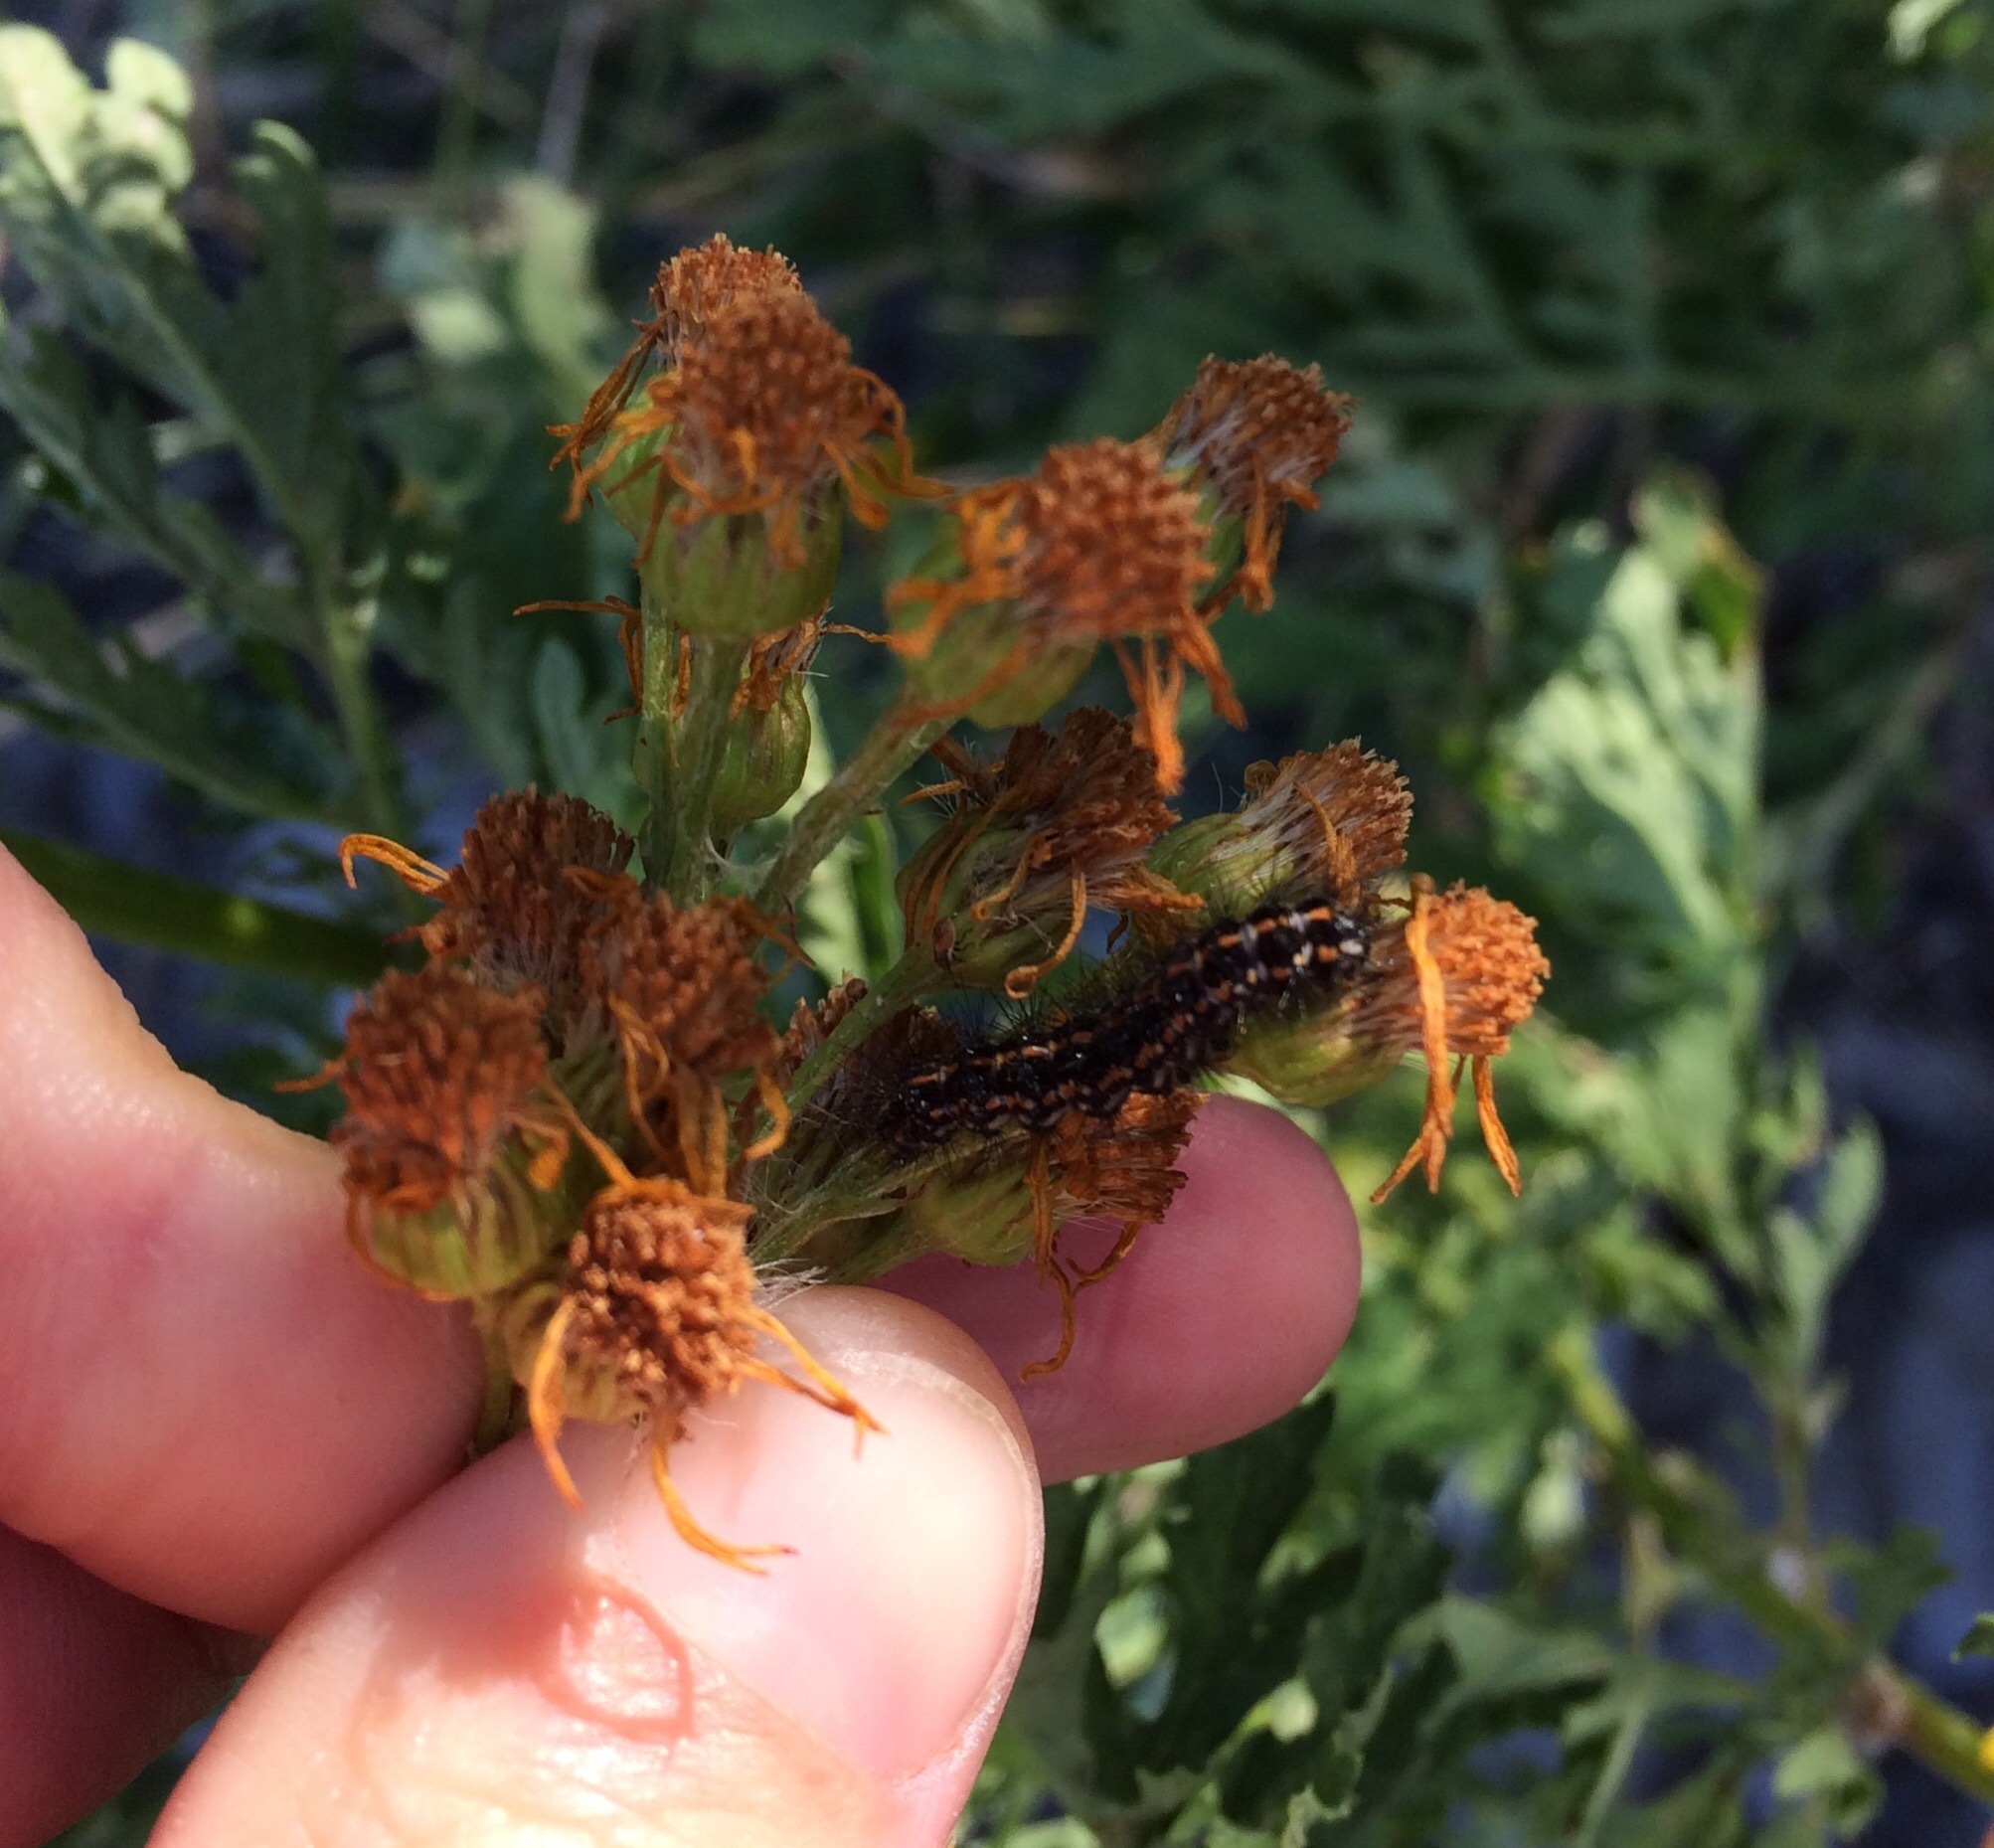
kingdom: Animalia
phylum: Arthropoda
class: Insecta
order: Lepidoptera
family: Erebidae
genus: Nyctemera
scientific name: Nyctemera annulatum
